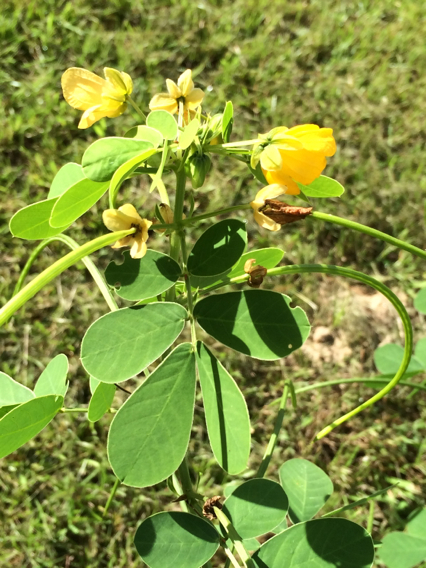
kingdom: Plantae
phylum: Tracheophyta
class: Magnoliopsida
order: Fabales
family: Fabaceae
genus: Senna
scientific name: Senna obtusifolia
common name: Java-bean
